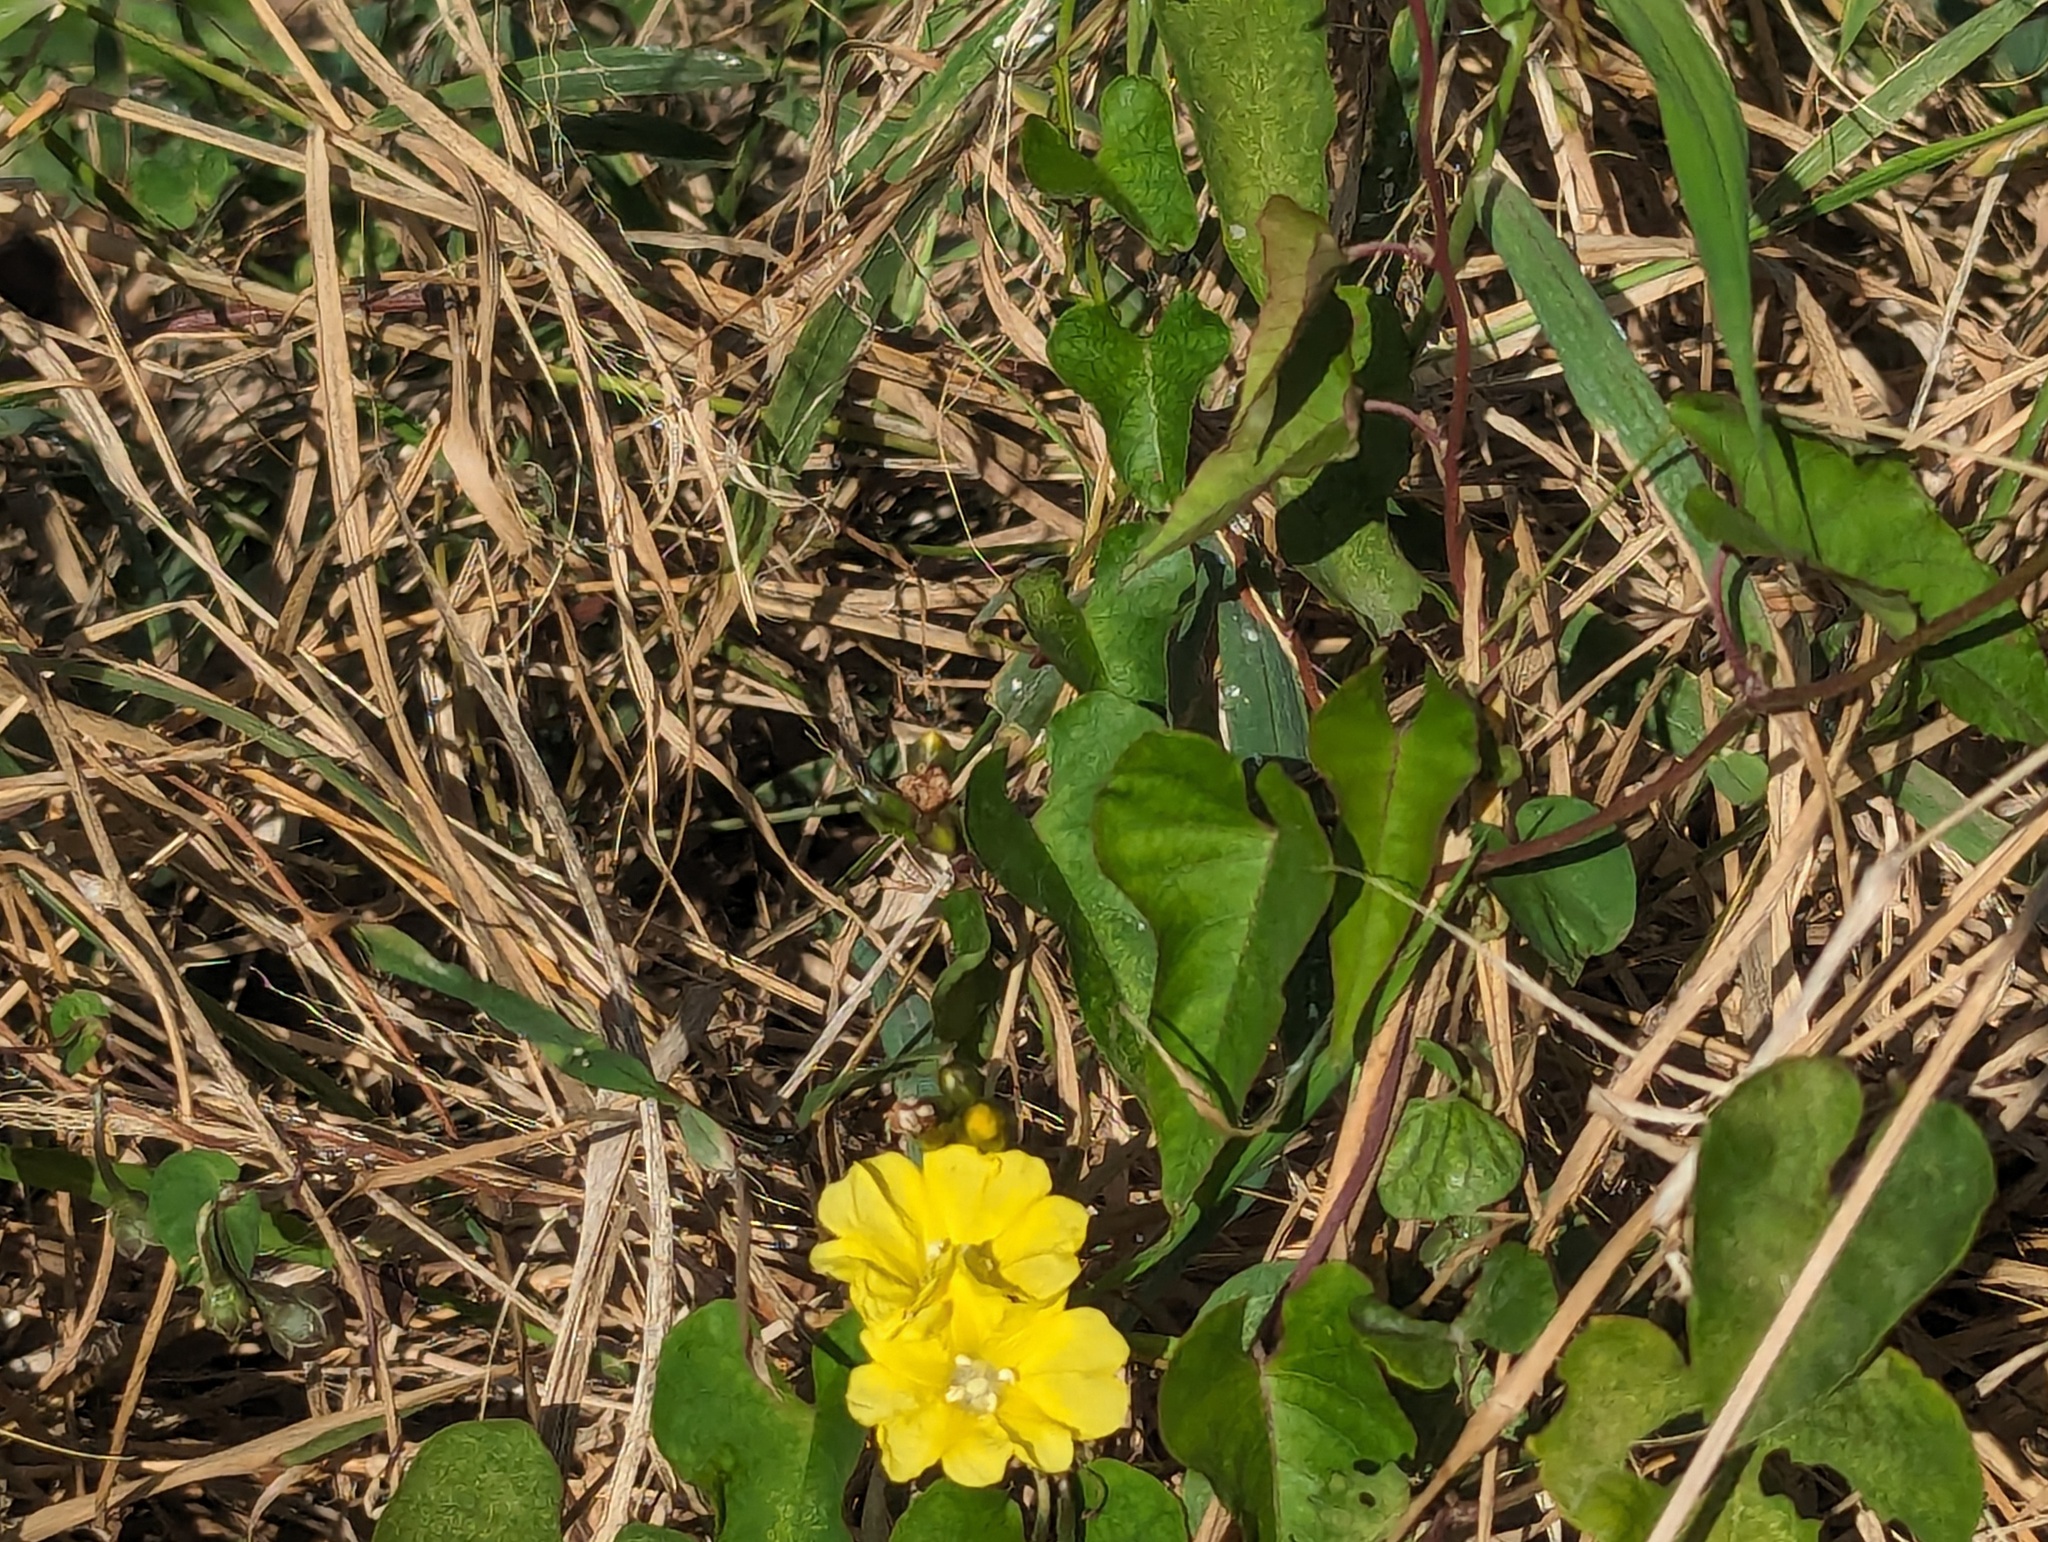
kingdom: Plantae
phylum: Tracheophyta
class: Magnoliopsida
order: Solanales
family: Convolvulaceae
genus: Merremia
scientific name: Merremia gemella
